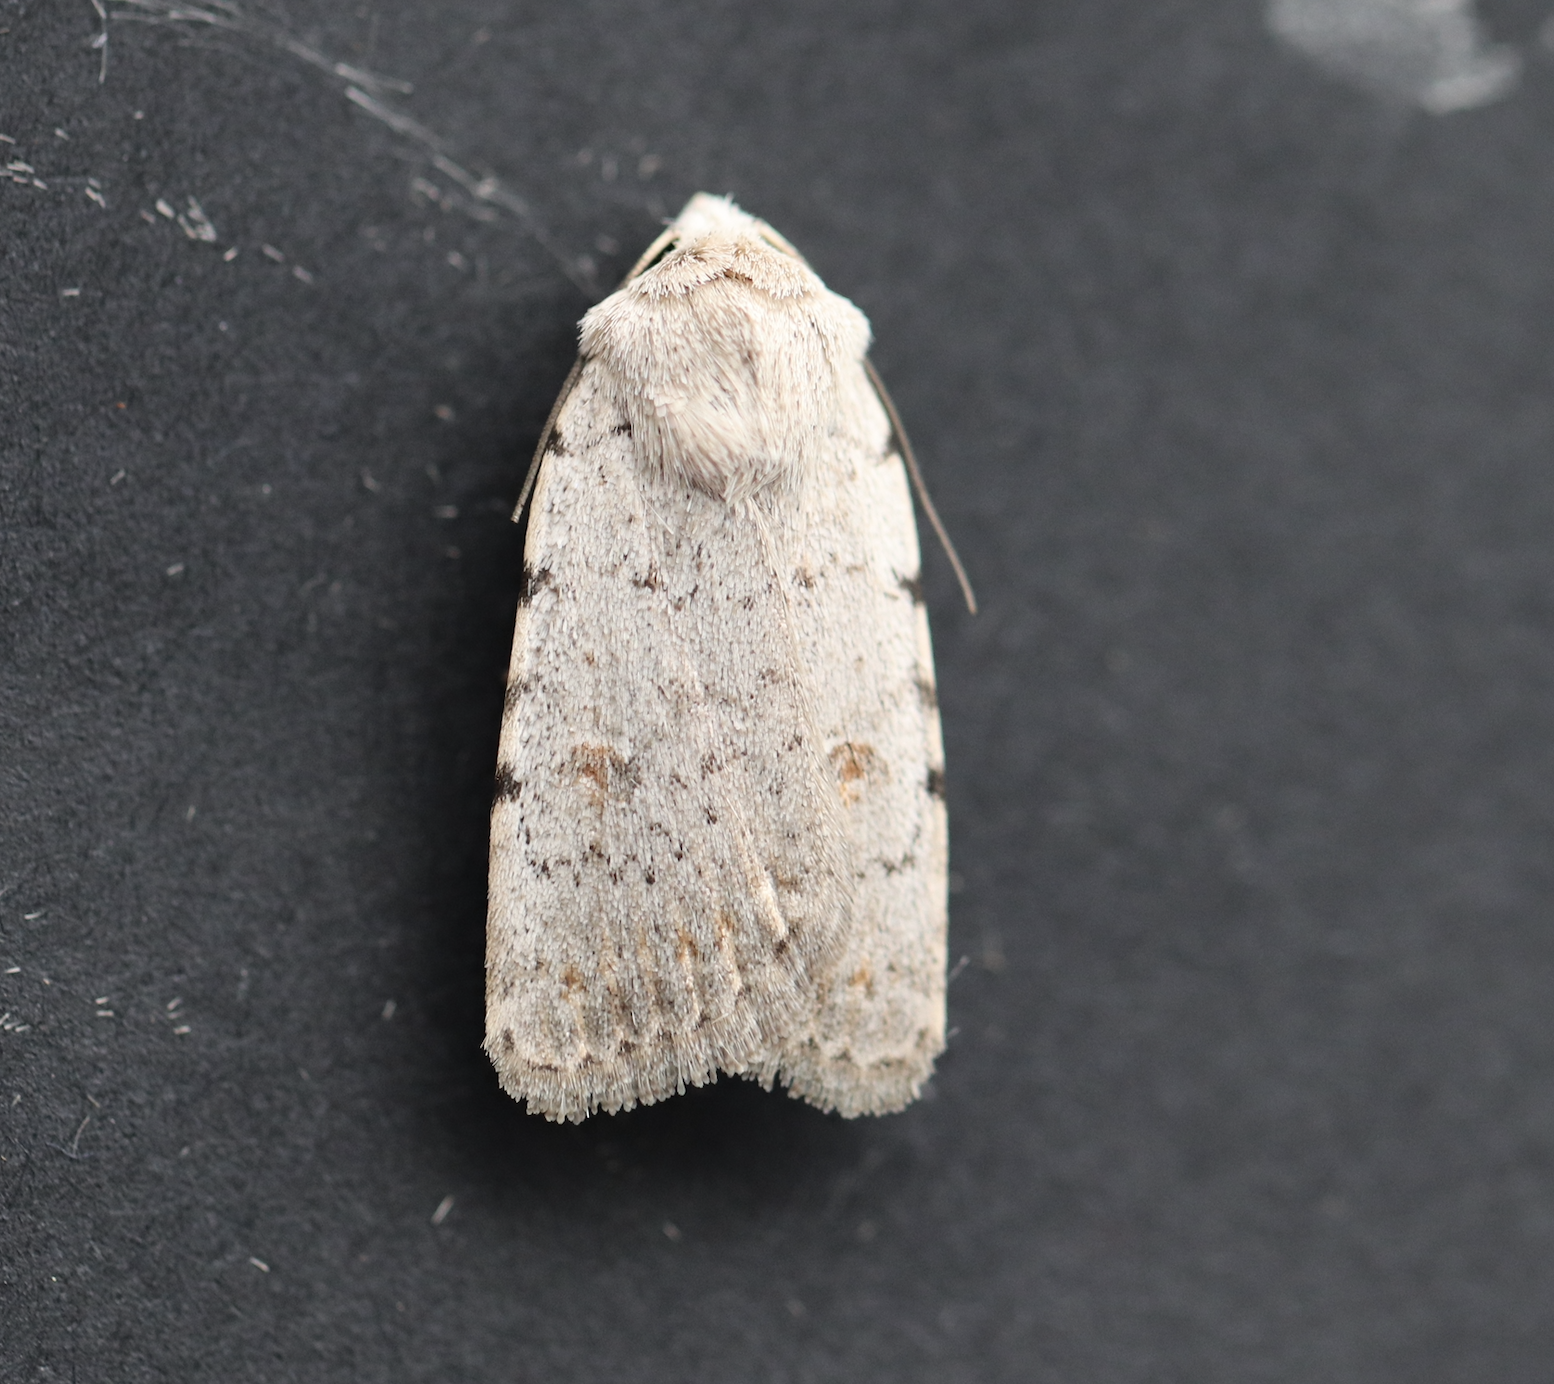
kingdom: Animalia
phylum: Arthropoda
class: Insecta
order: Lepidoptera
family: Noctuidae
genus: Caradrina
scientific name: Caradrina selini
